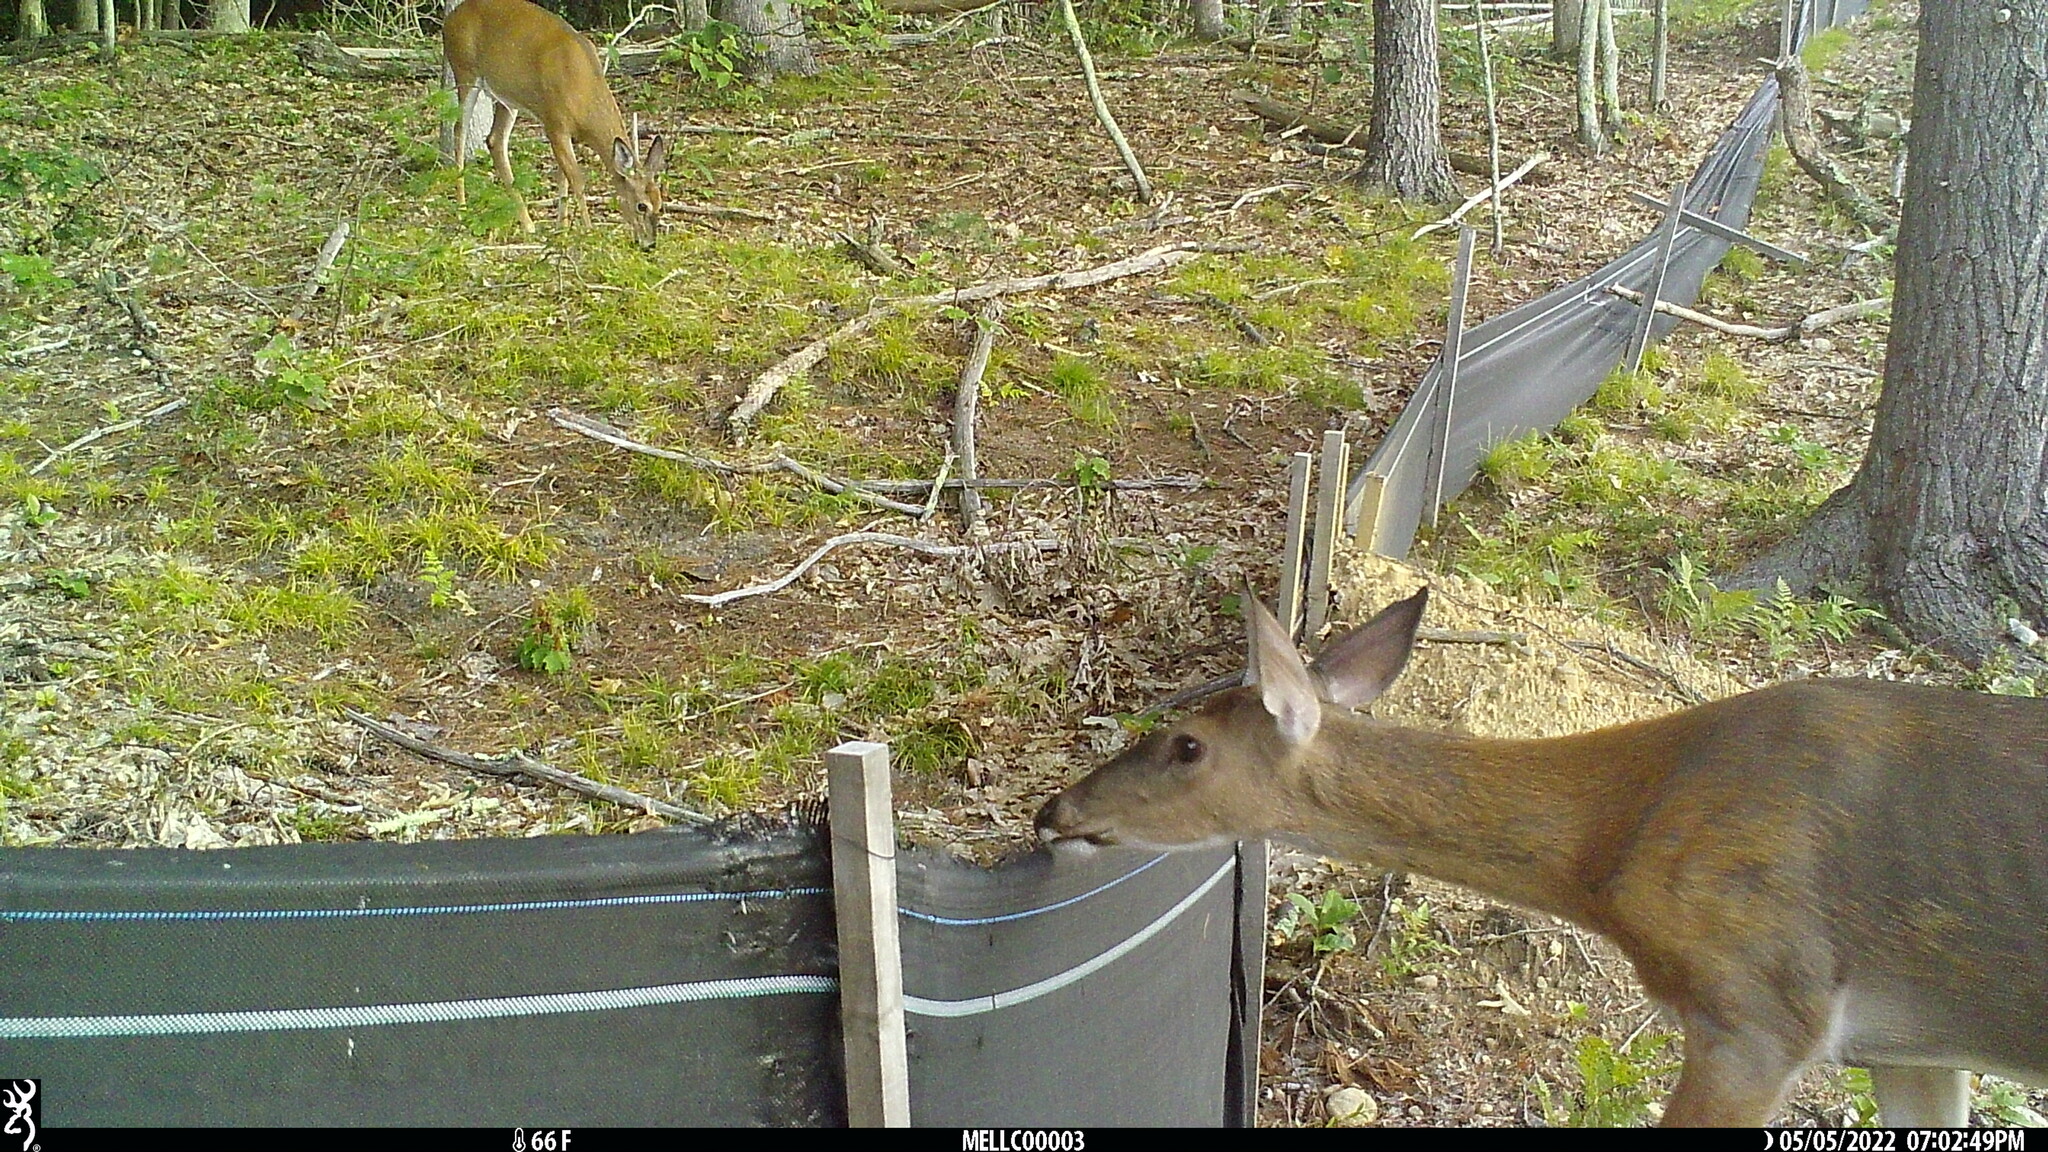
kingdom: Animalia
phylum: Chordata
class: Mammalia
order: Artiodactyla
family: Cervidae
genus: Odocoileus
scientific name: Odocoileus virginianus
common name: White-tailed deer
